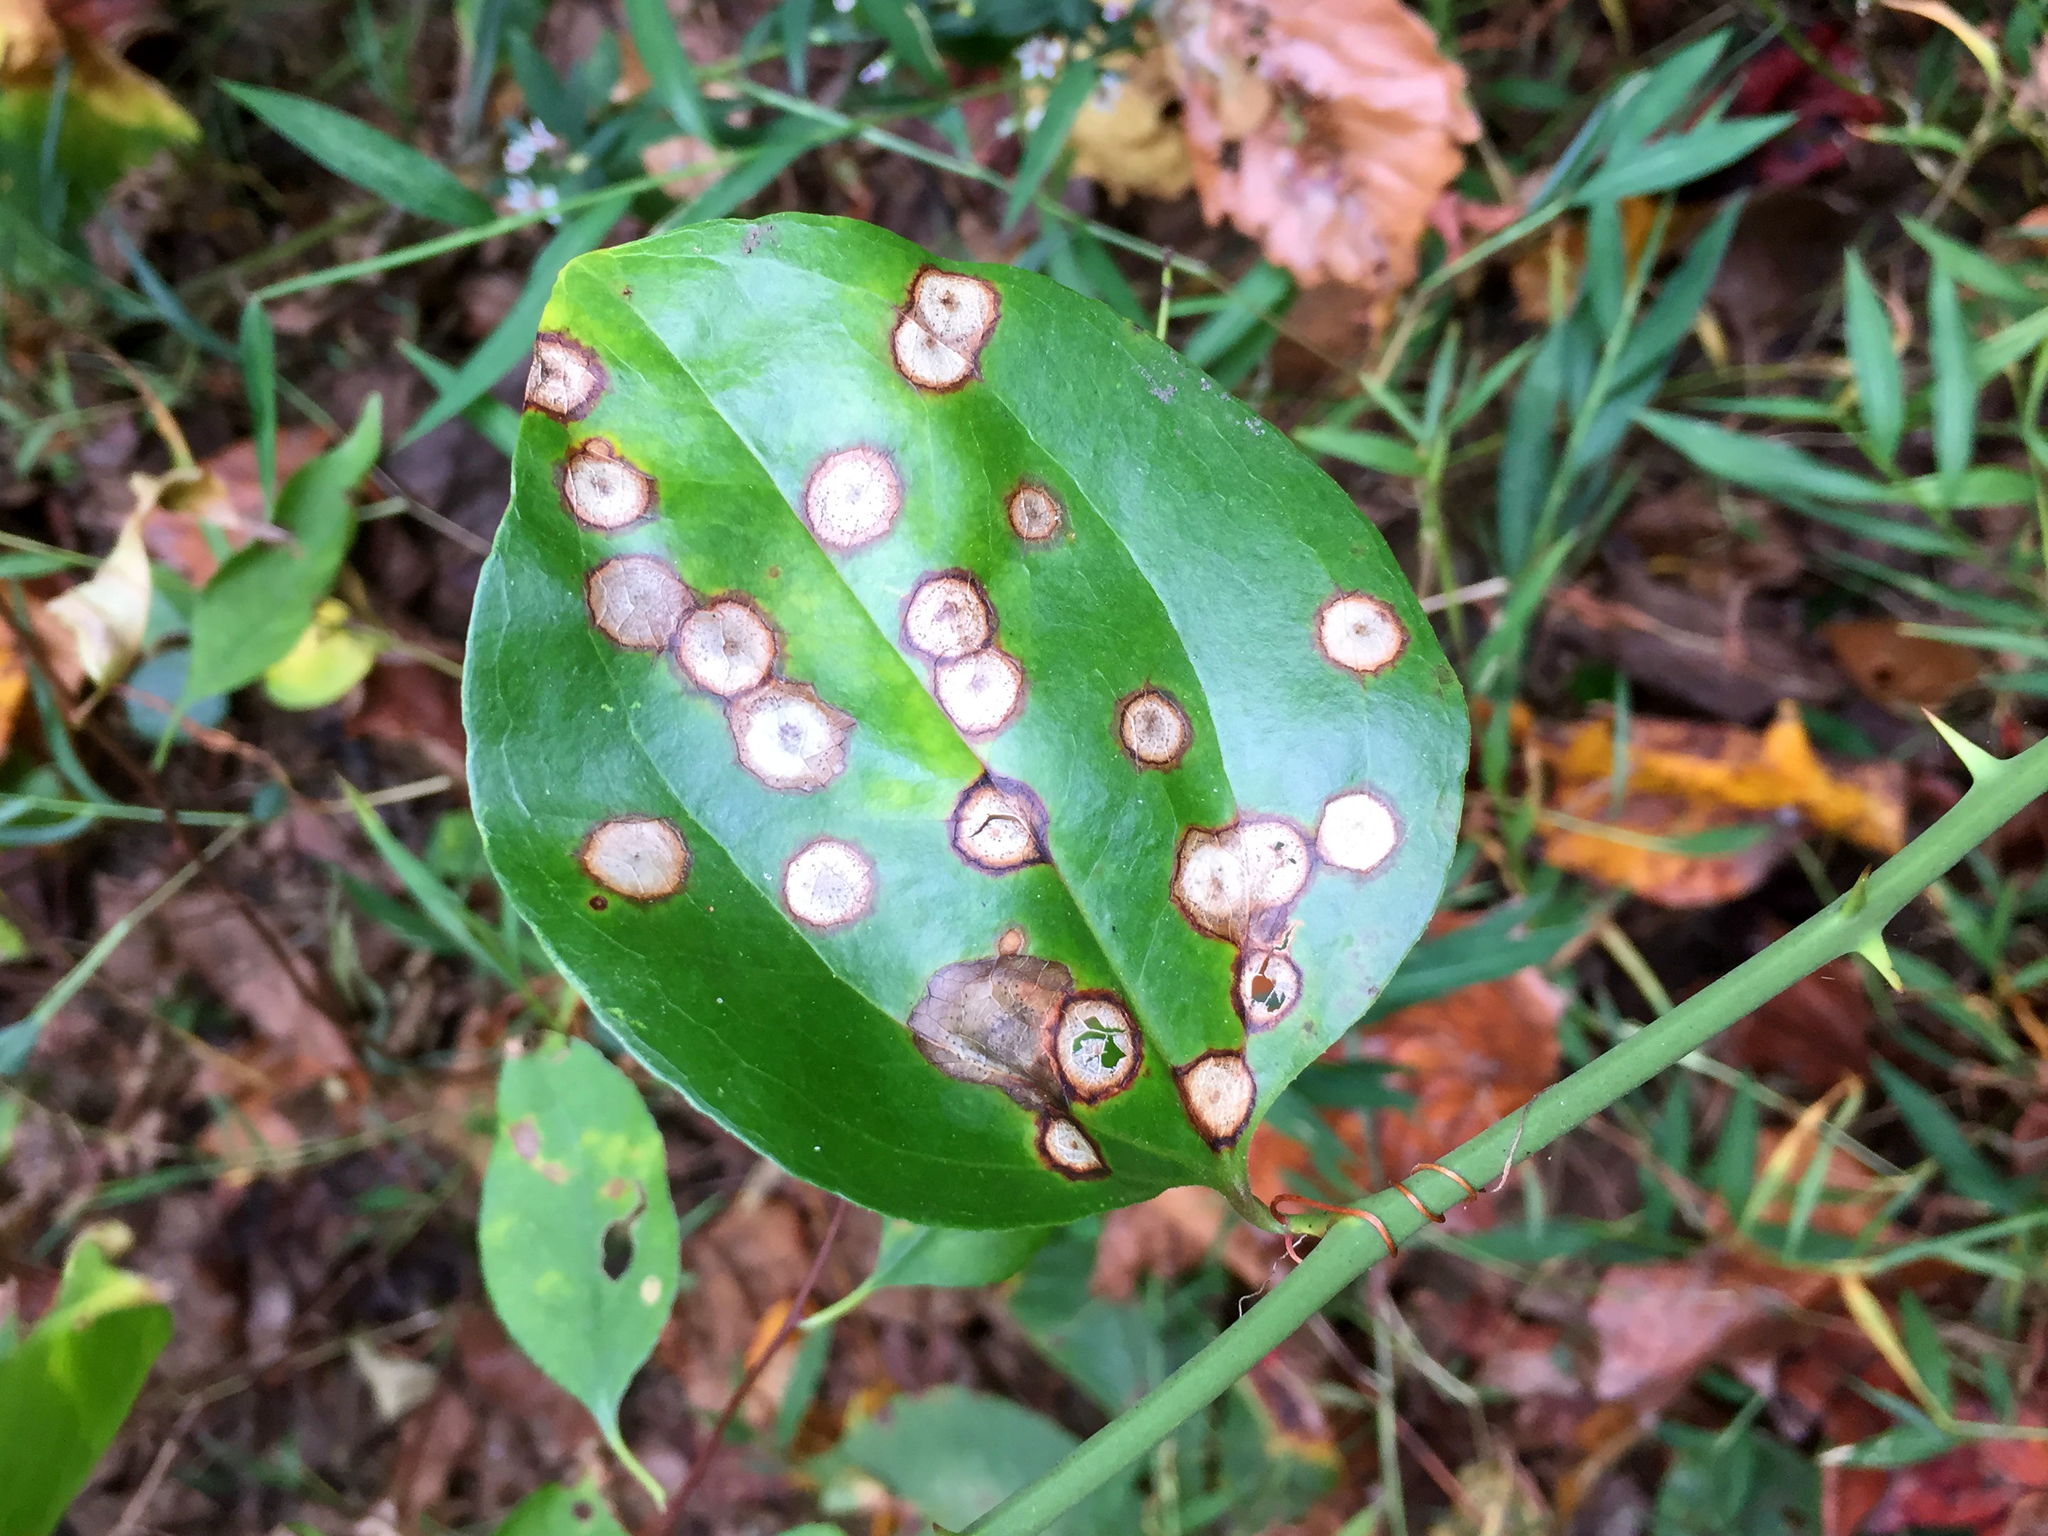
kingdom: Plantae
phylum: Tracheophyta
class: Liliopsida
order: Liliales
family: Smilacaceae
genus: Smilax
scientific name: Smilax rotundifolia
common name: Bullbriar
